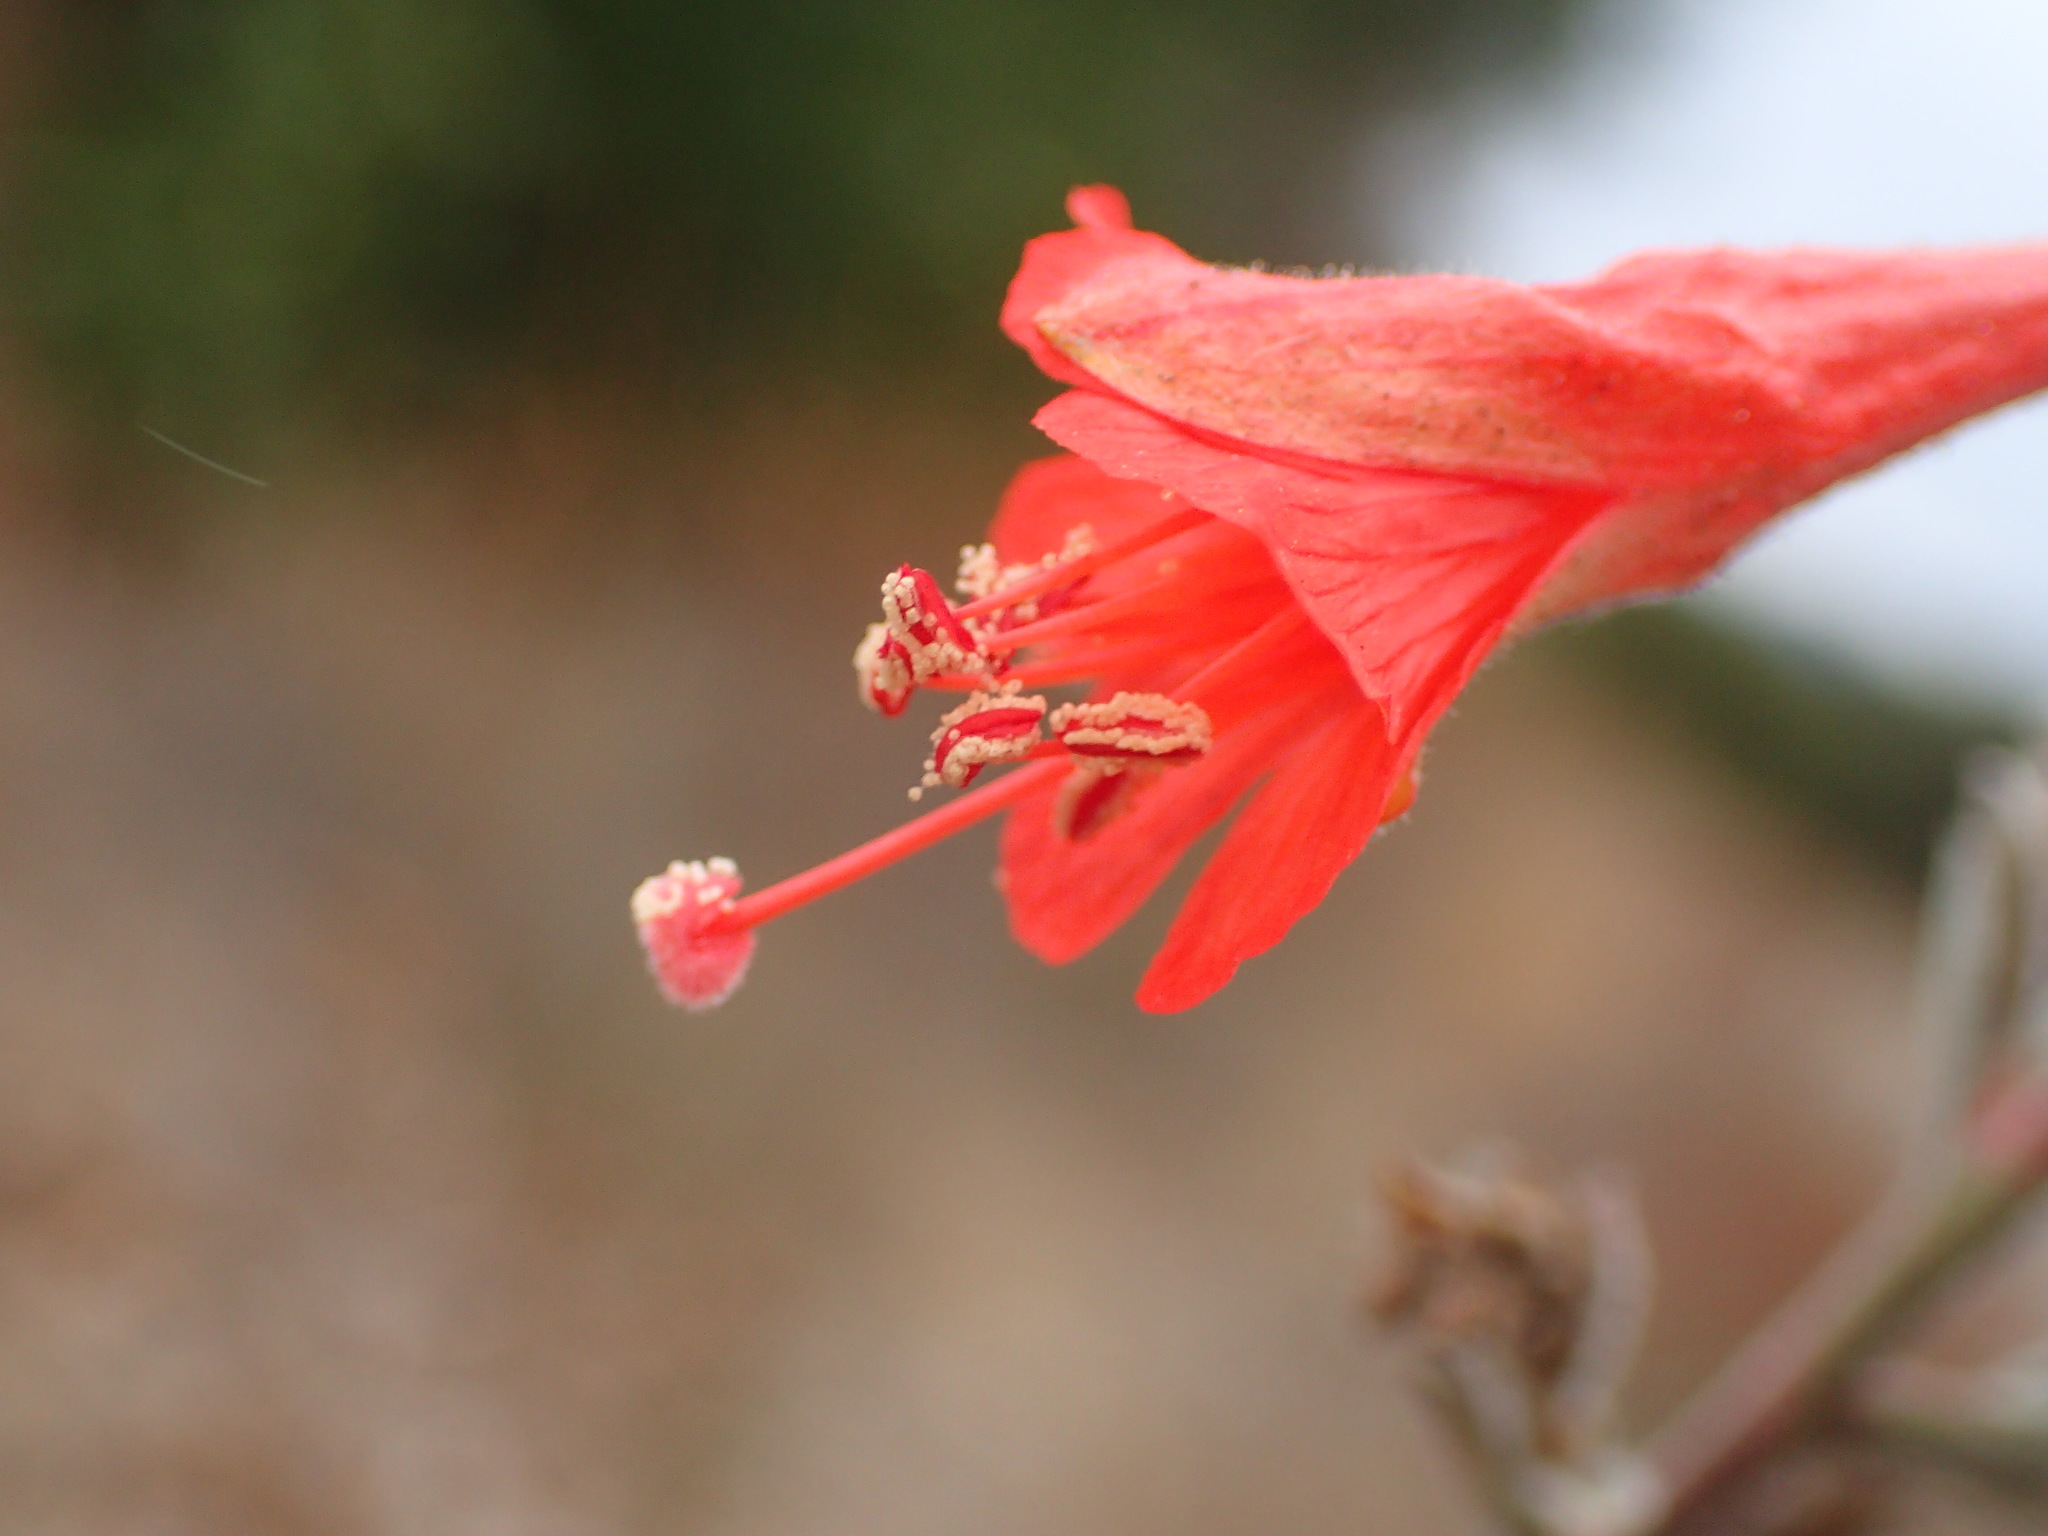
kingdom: Plantae
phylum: Tracheophyta
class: Magnoliopsida
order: Myrtales
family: Onagraceae
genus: Epilobium
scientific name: Epilobium canum
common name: California-fuchsia
